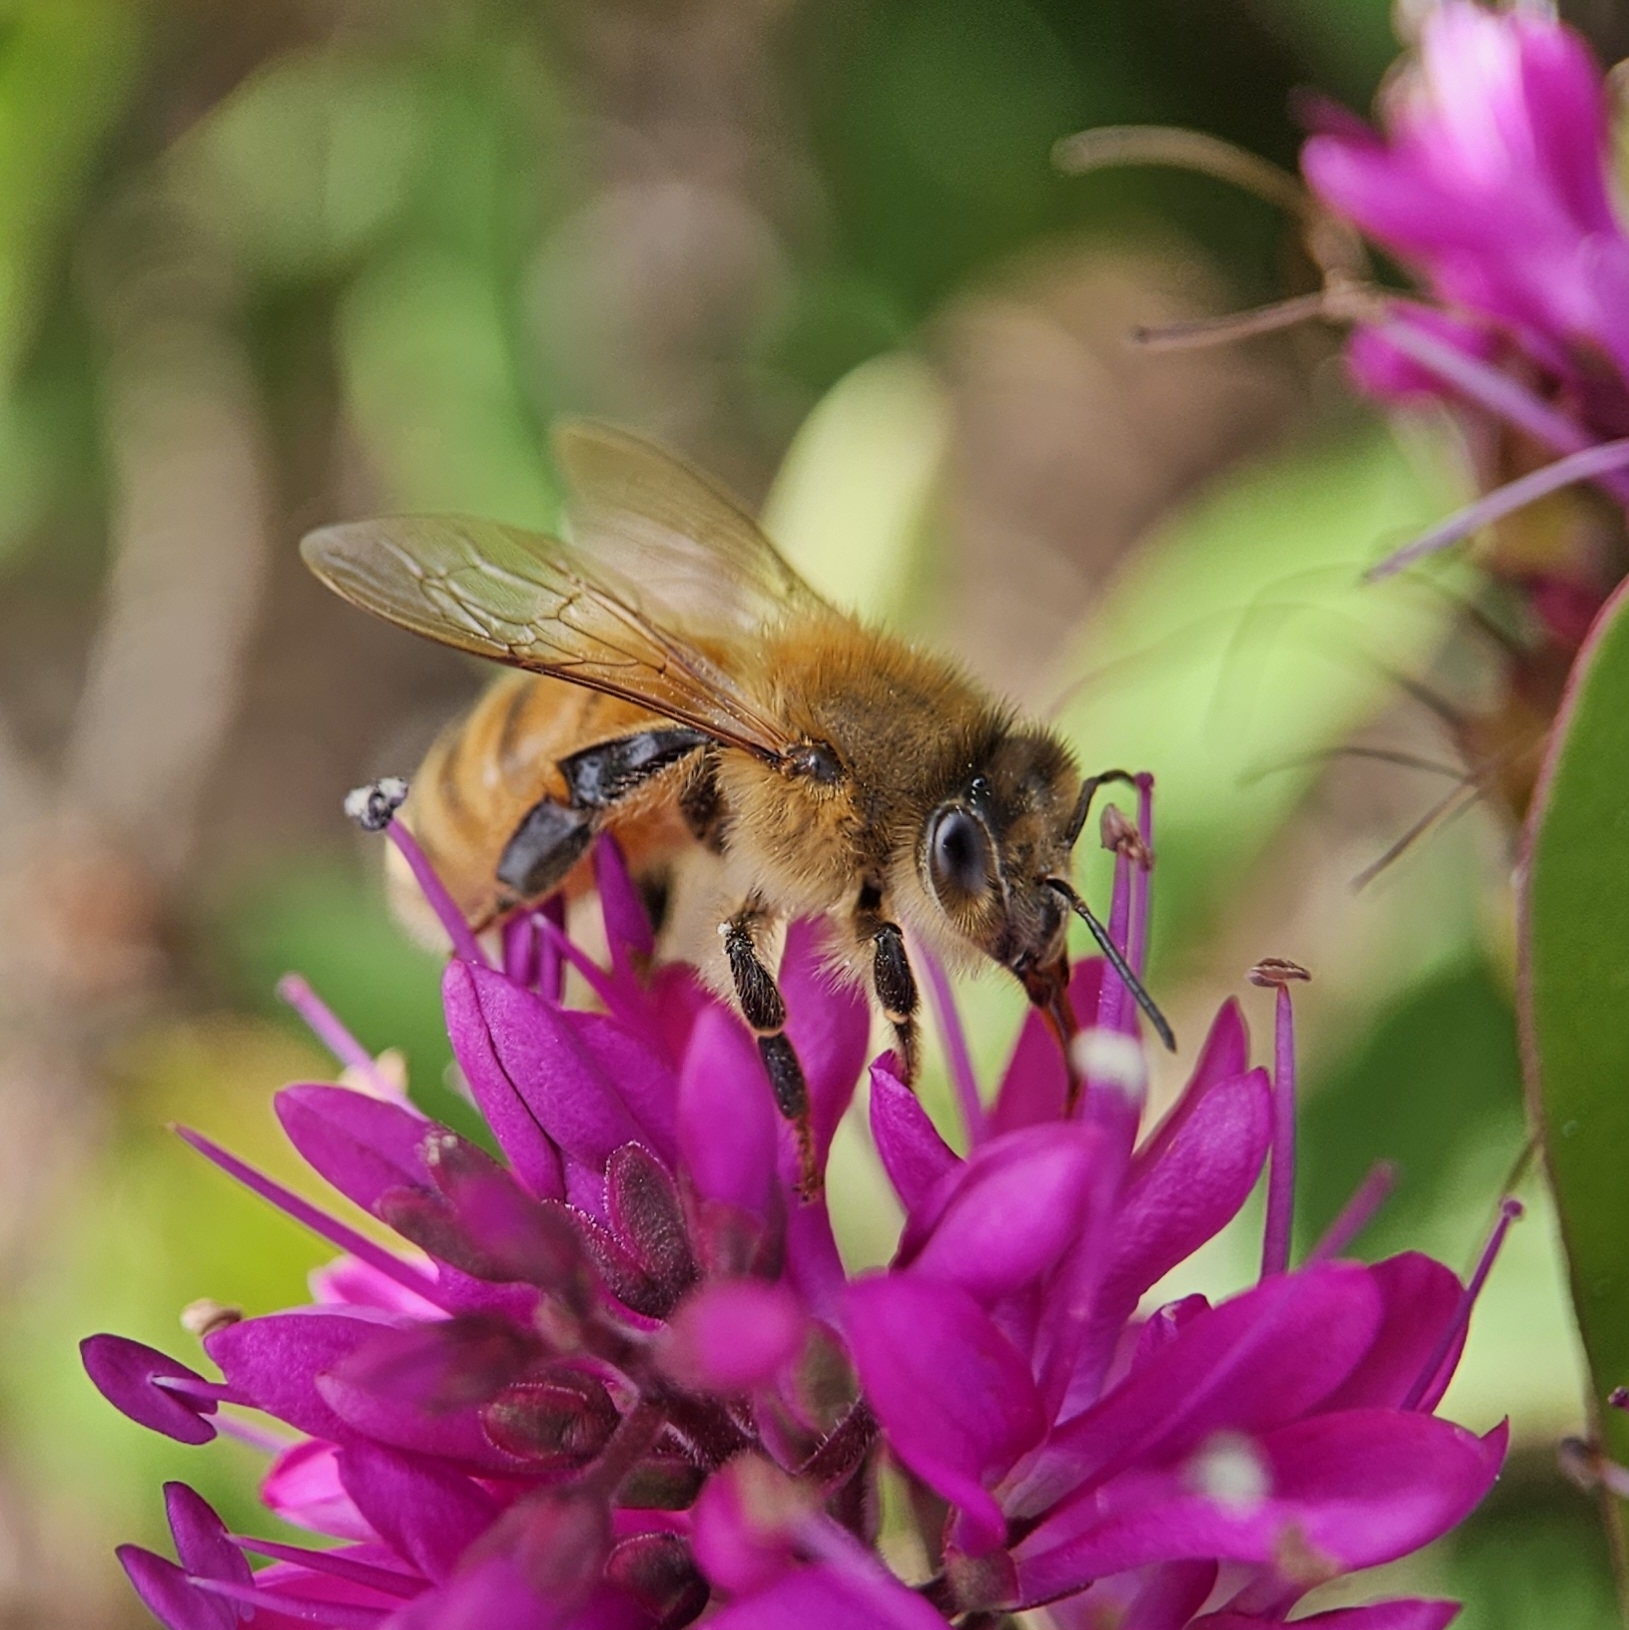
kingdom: Animalia
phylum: Arthropoda
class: Insecta
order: Hymenoptera
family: Apidae
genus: Apis
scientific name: Apis mellifera
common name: Honey bee
